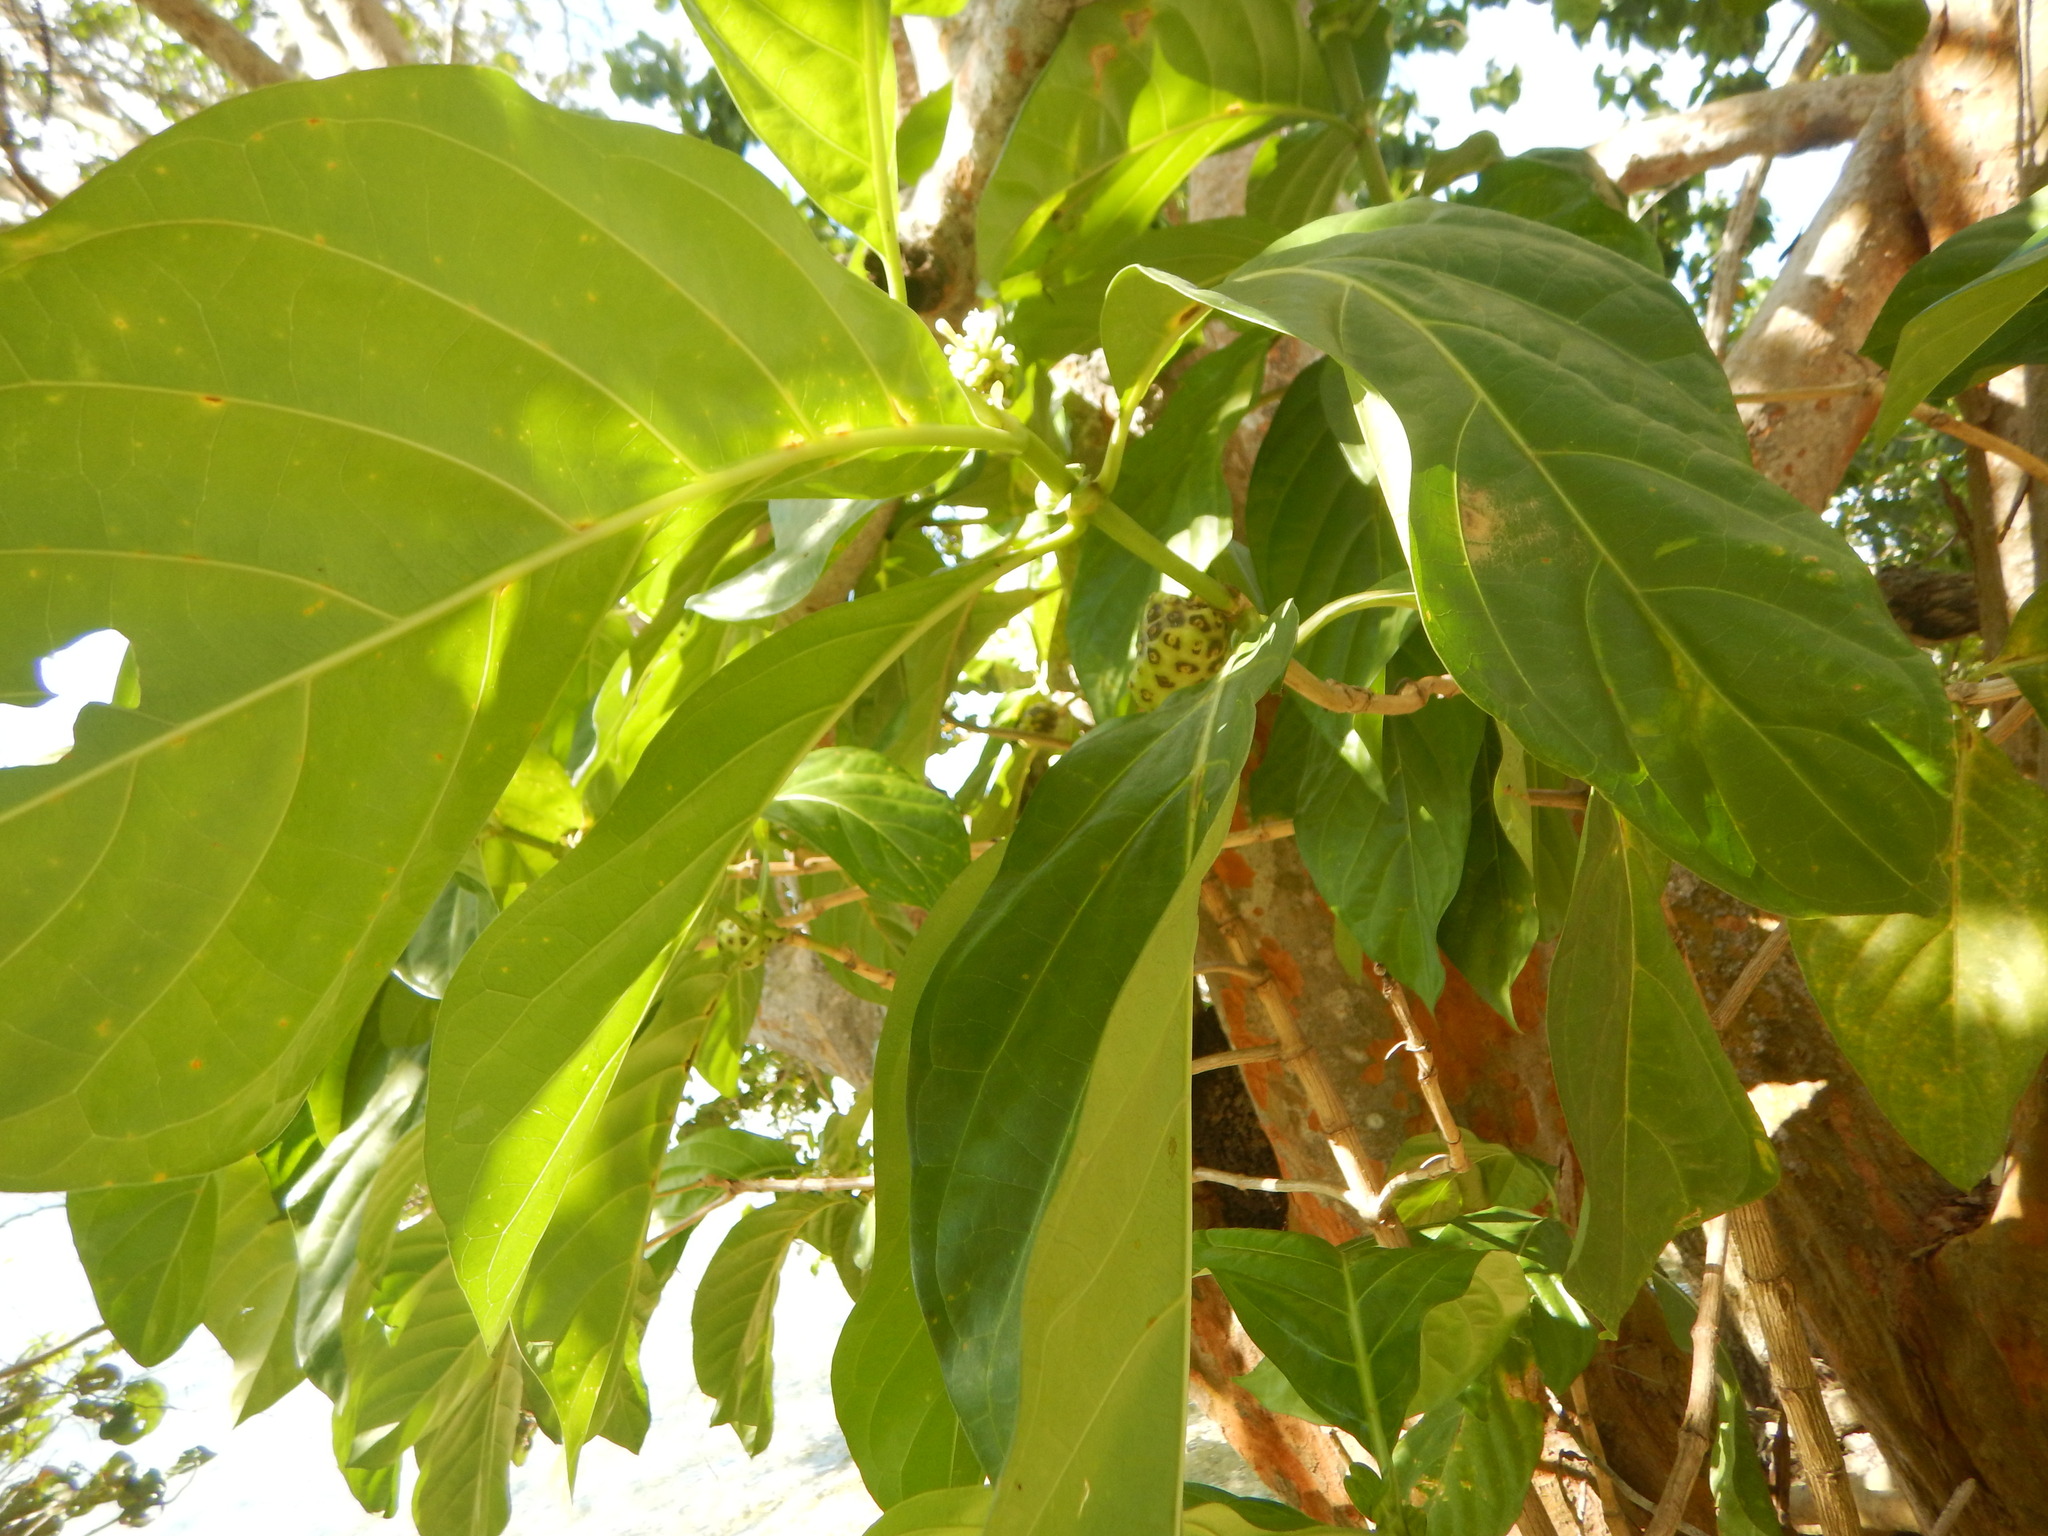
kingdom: Plantae
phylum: Tracheophyta
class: Magnoliopsida
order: Gentianales
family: Rubiaceae
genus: Morinda
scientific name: Morinda citrifolia
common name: Indian-mulberry
